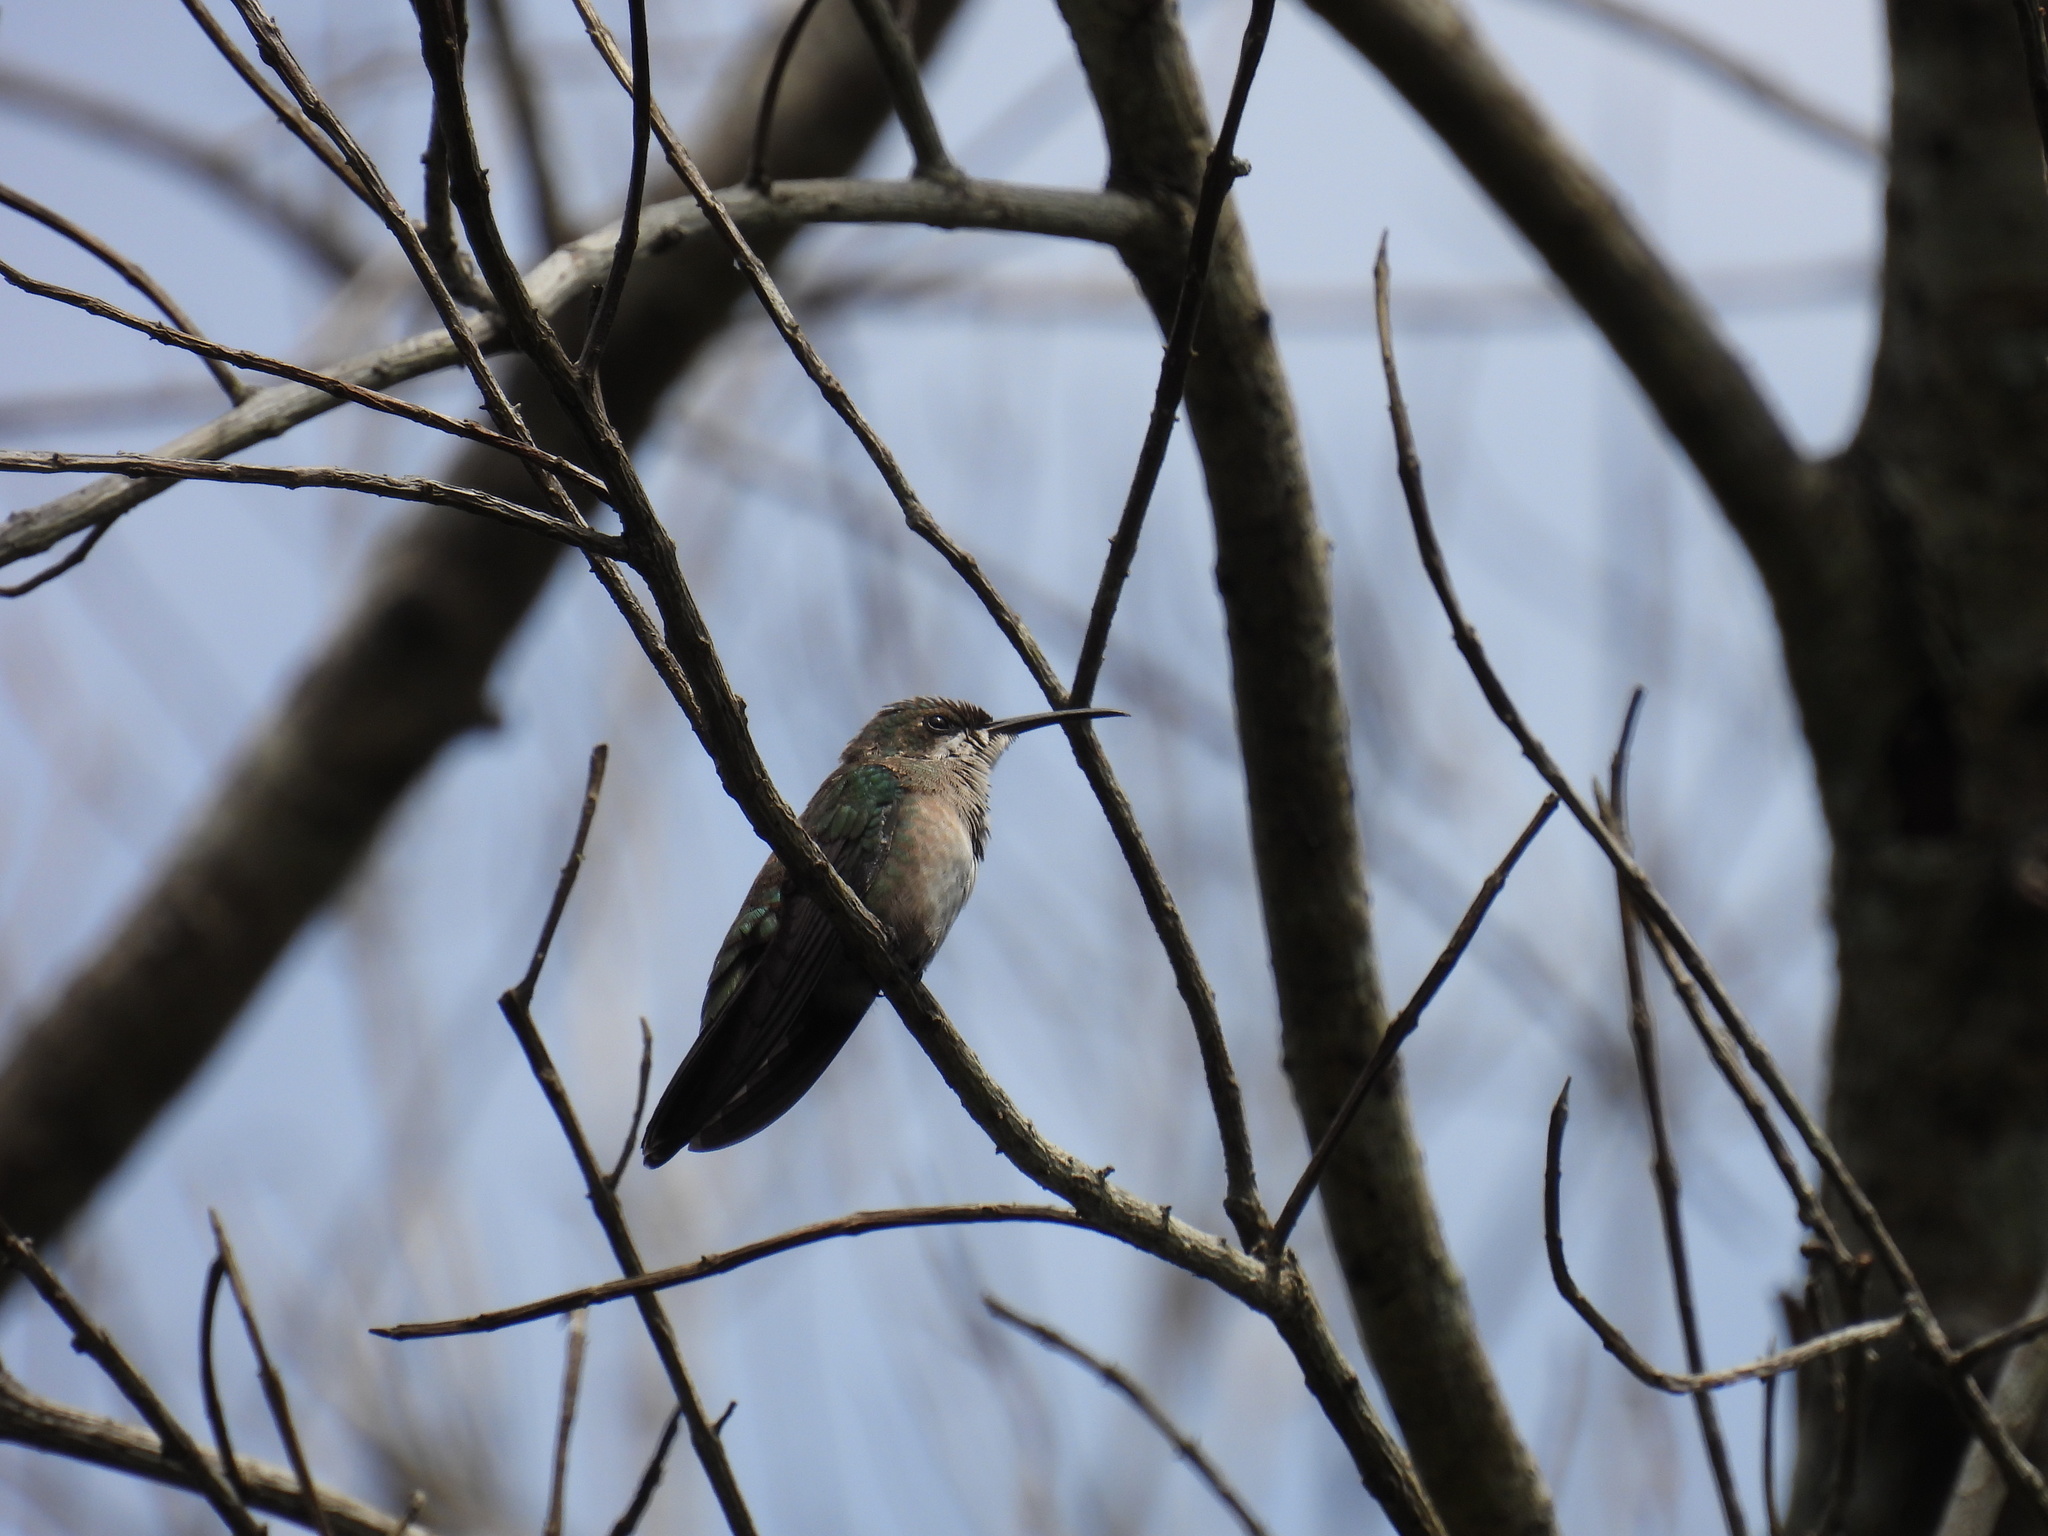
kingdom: Animalia
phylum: Chordata
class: Aves
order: Apodiformes
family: Trochilidae
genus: Anthracothorax
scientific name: Anthracothorax dominicus
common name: Antillean mango
